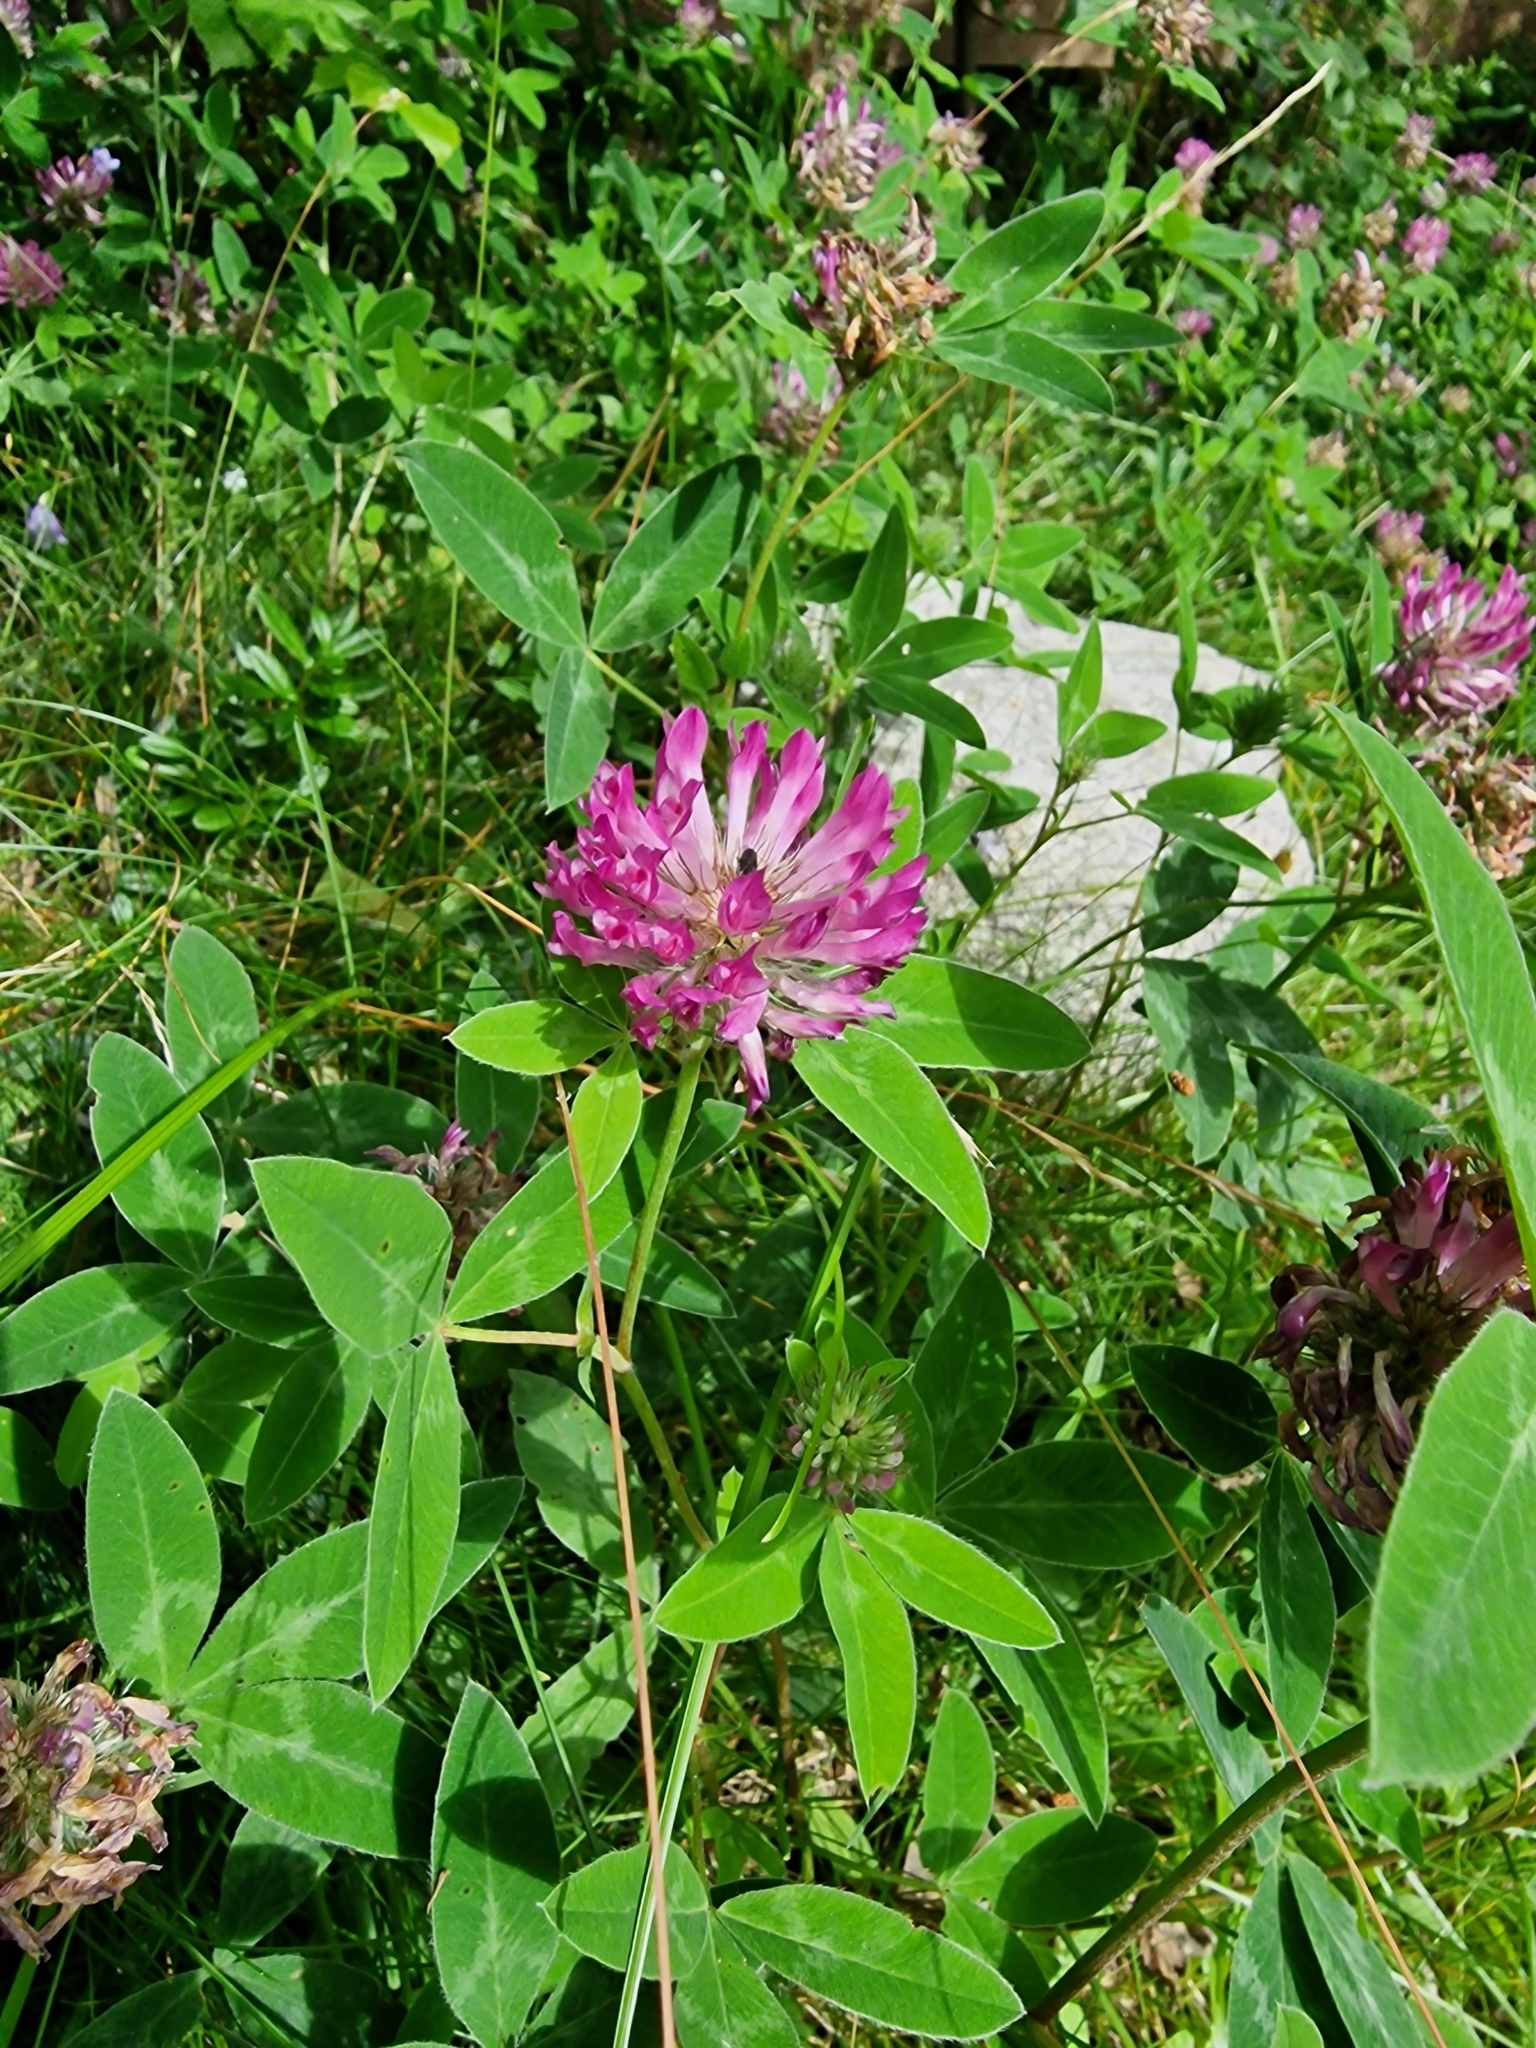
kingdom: Plantae
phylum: Tracheophyta
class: Magnoliopsida
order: Fabales
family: Fabaceae
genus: Trifolium
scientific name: Trifolium medium
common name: Zigzag clover
